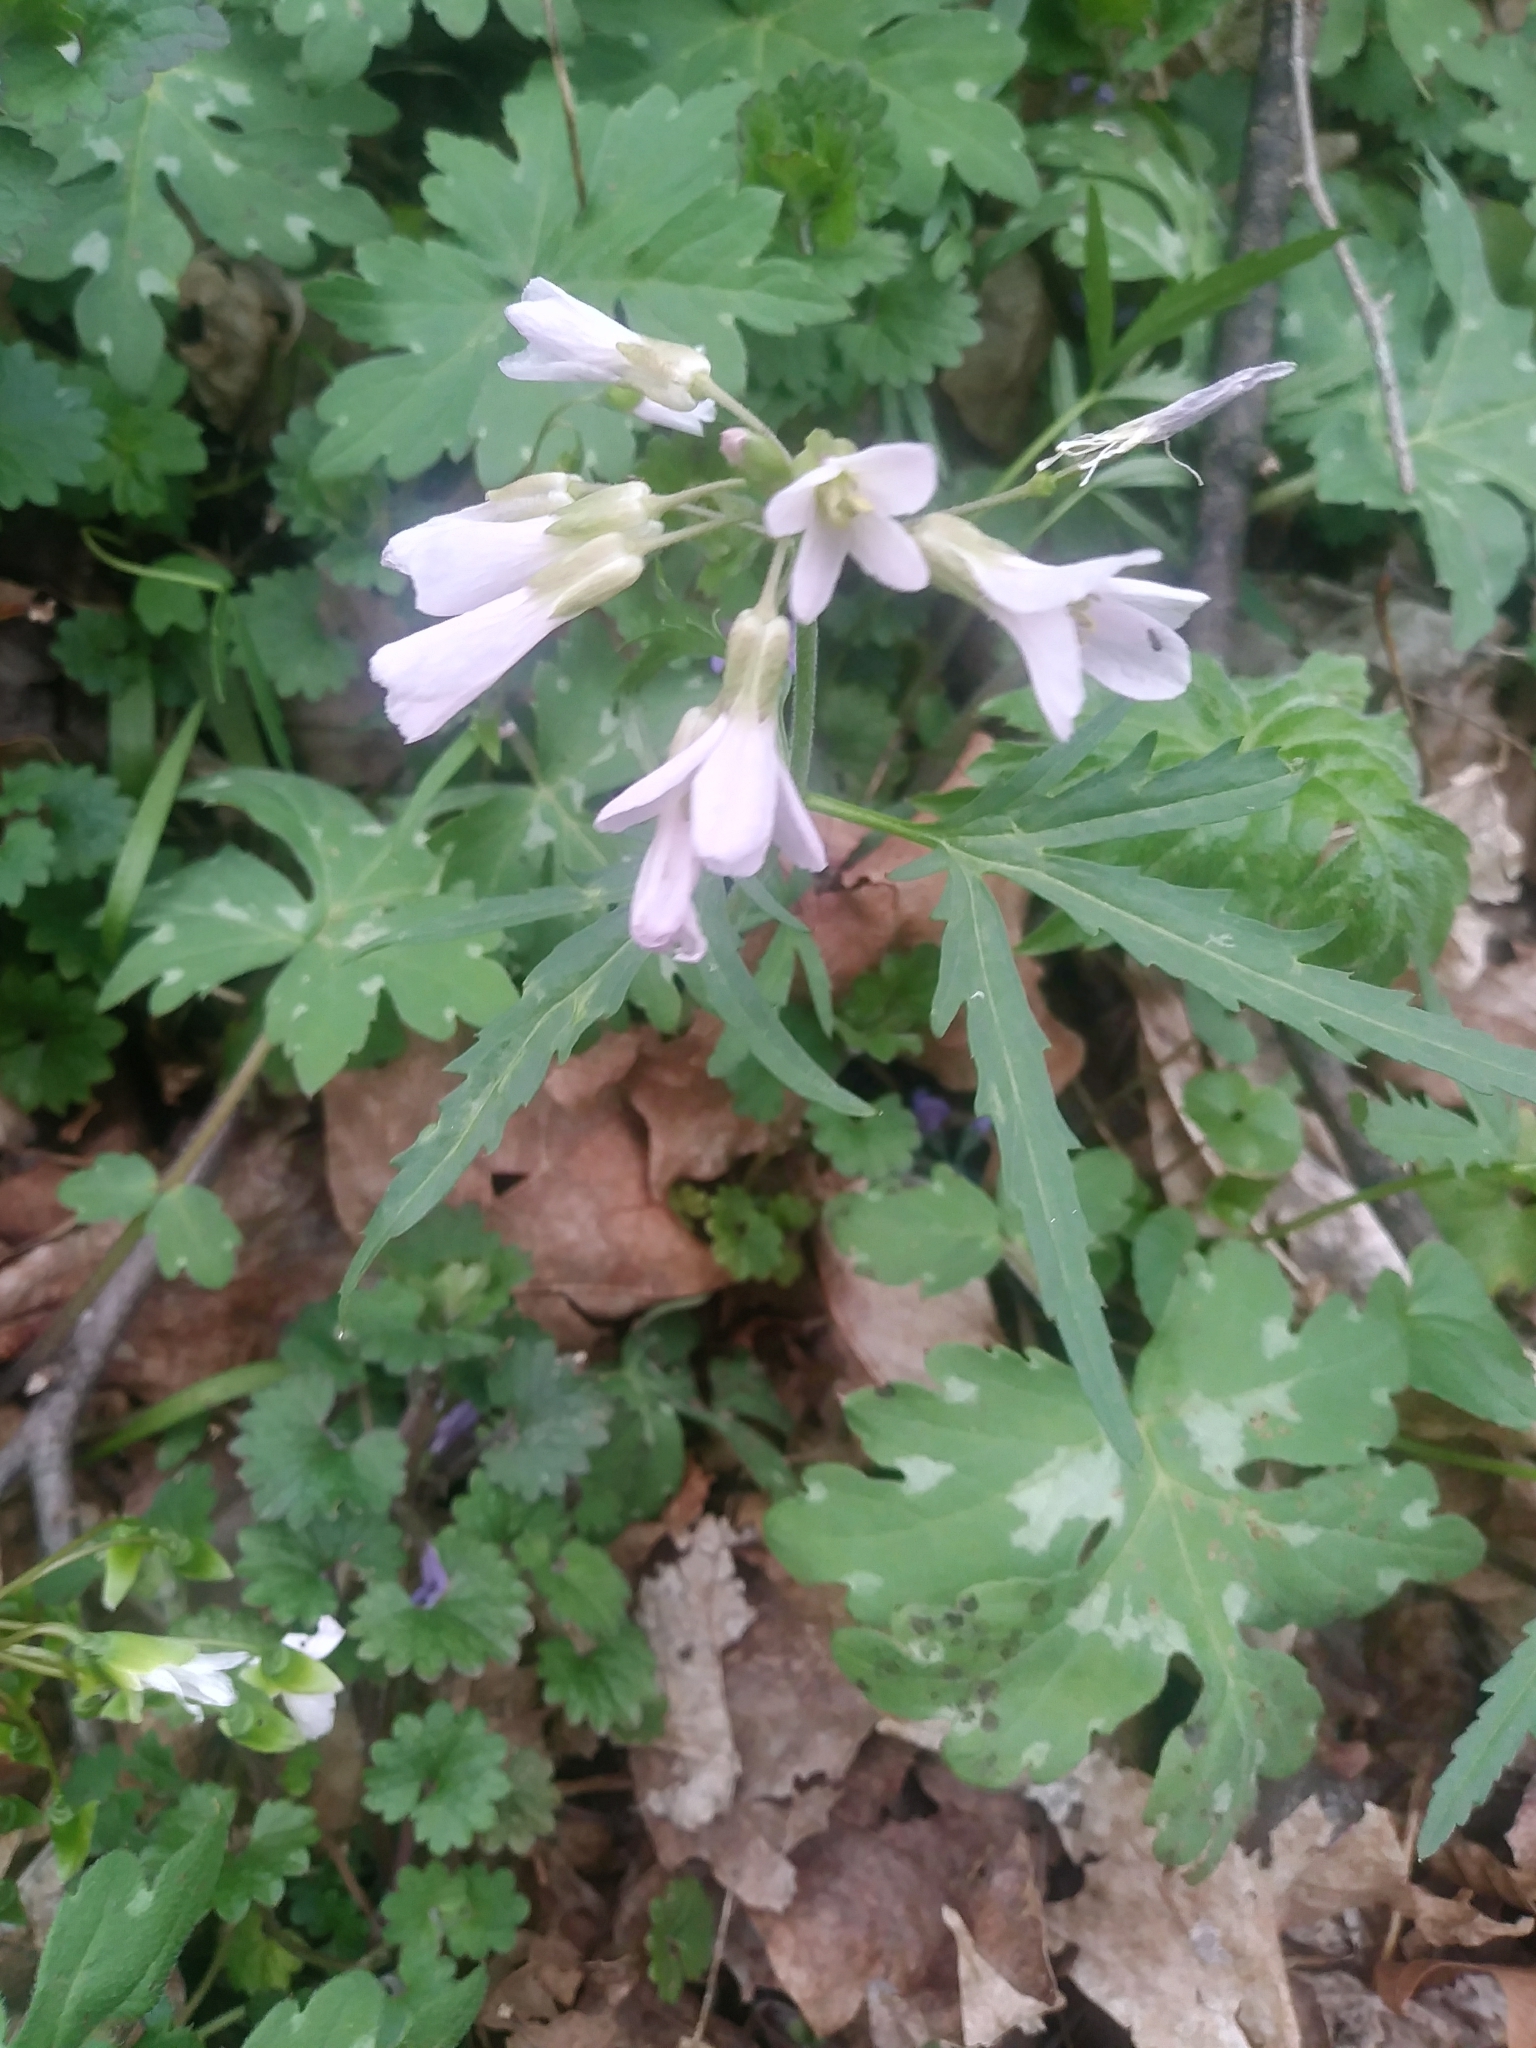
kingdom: Plantae
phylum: Tracheophyta
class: Magnoliopsida
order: Brassicales
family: Brassicaceae
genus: Cardamine
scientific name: Cardamine diphylla
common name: Broad-leaved toothwort
